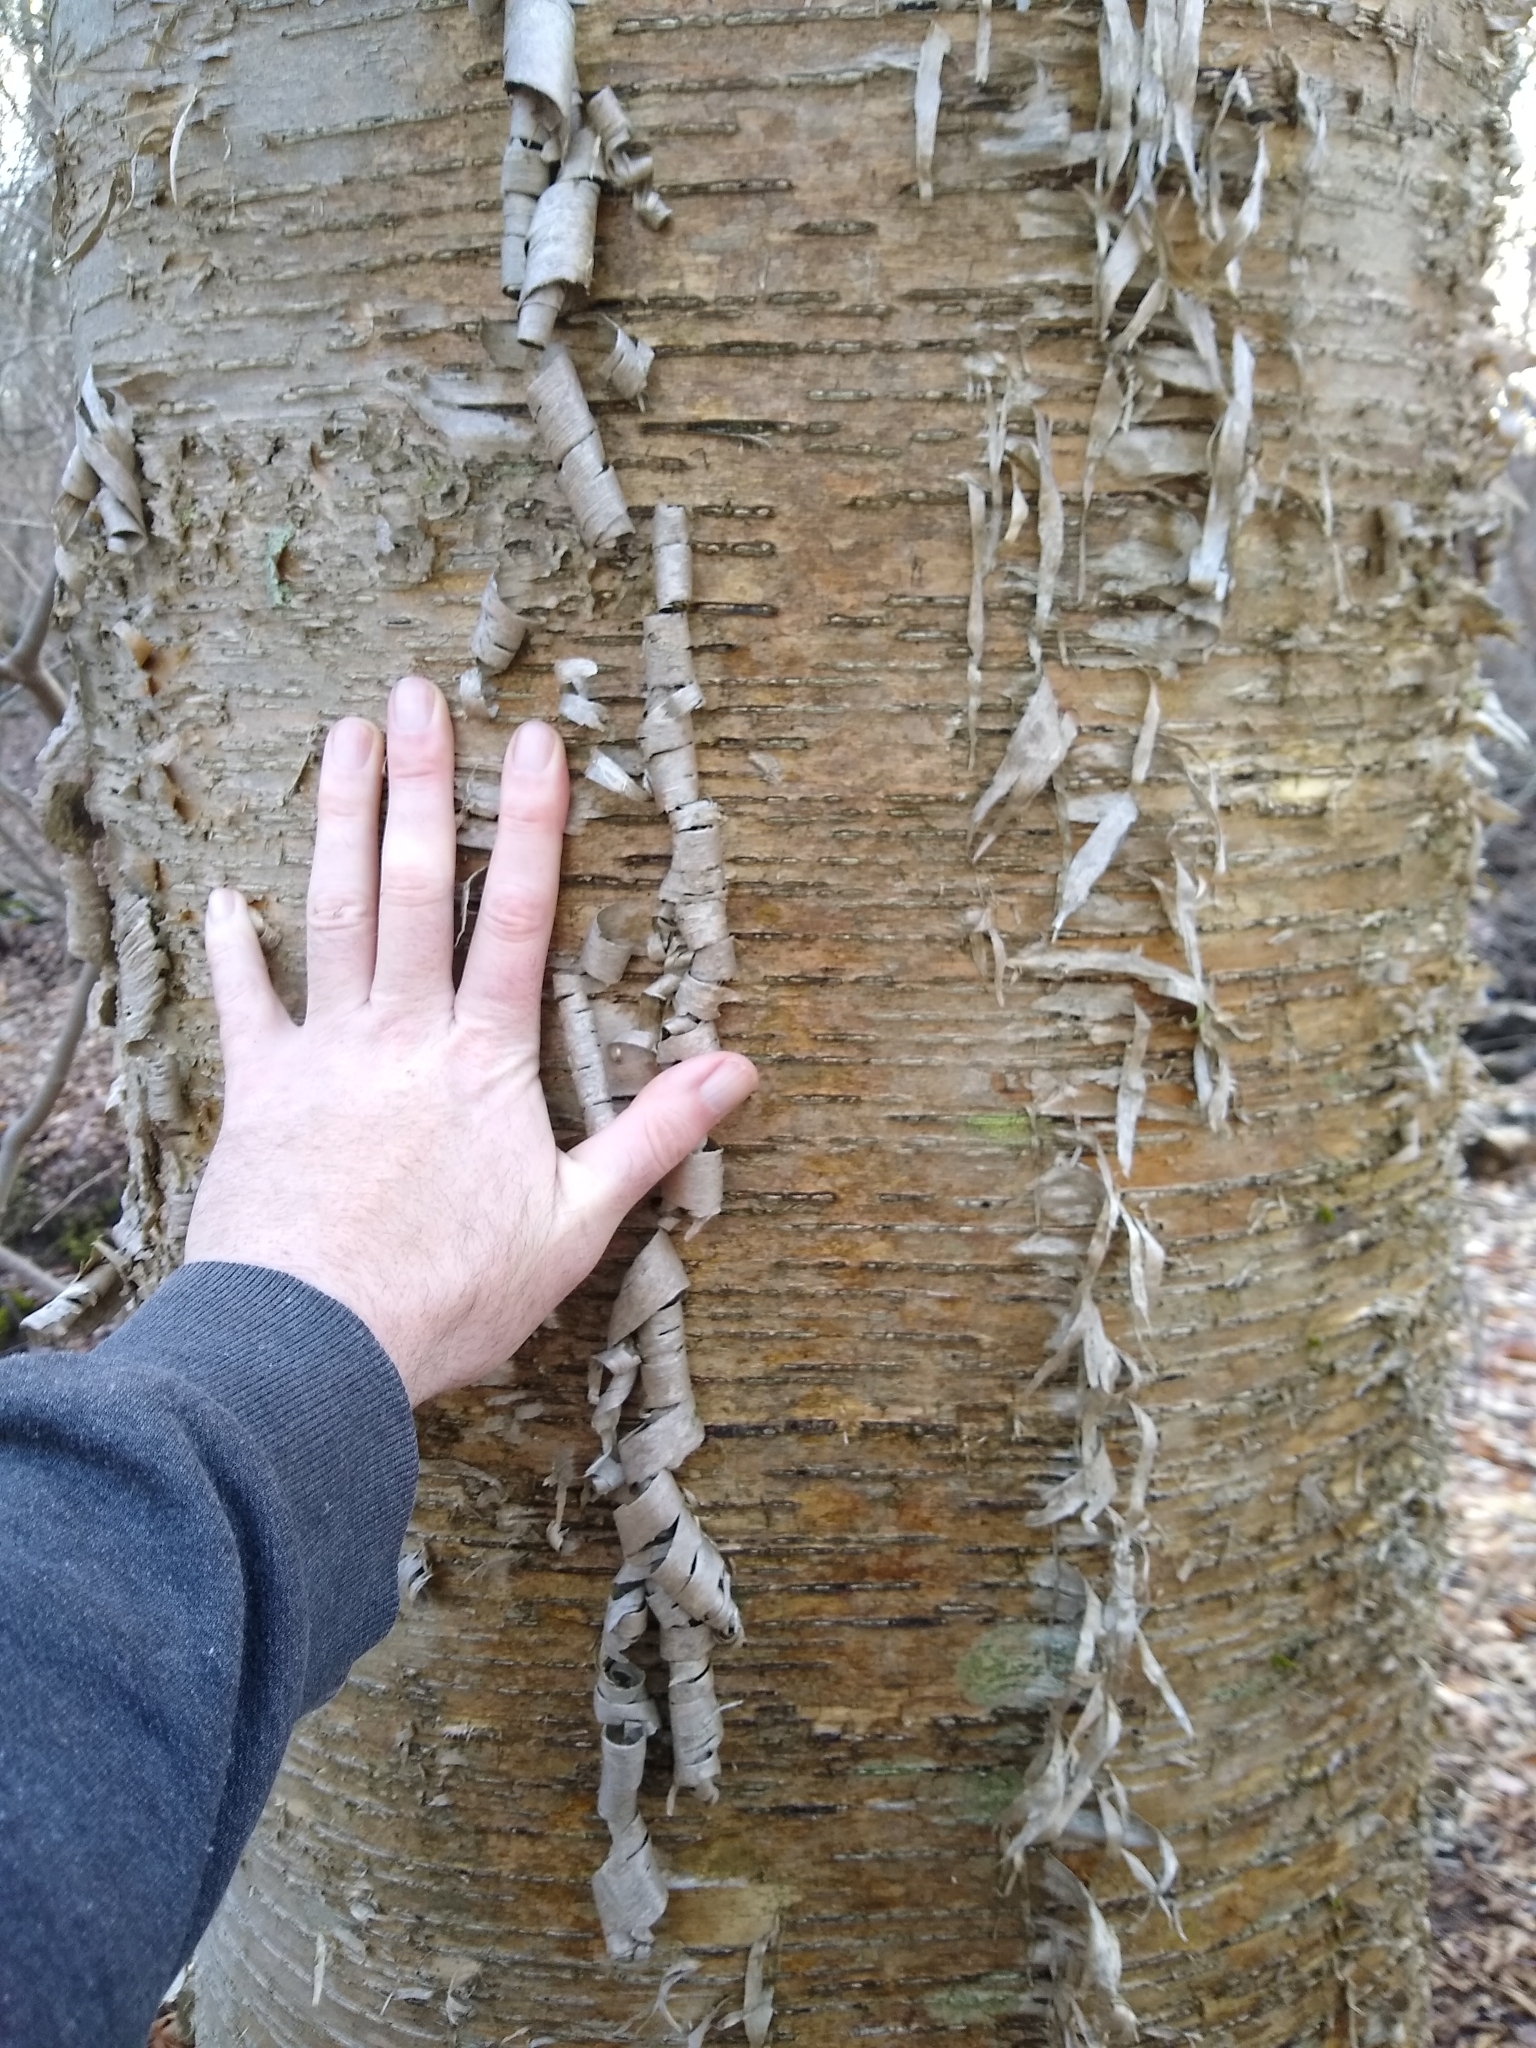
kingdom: Plantae
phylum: Tracheophyta
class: Magnoliopsida
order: Fagales
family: Betulaceae
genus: Betula
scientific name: Betula alleghaniensis
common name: Yellow birch
